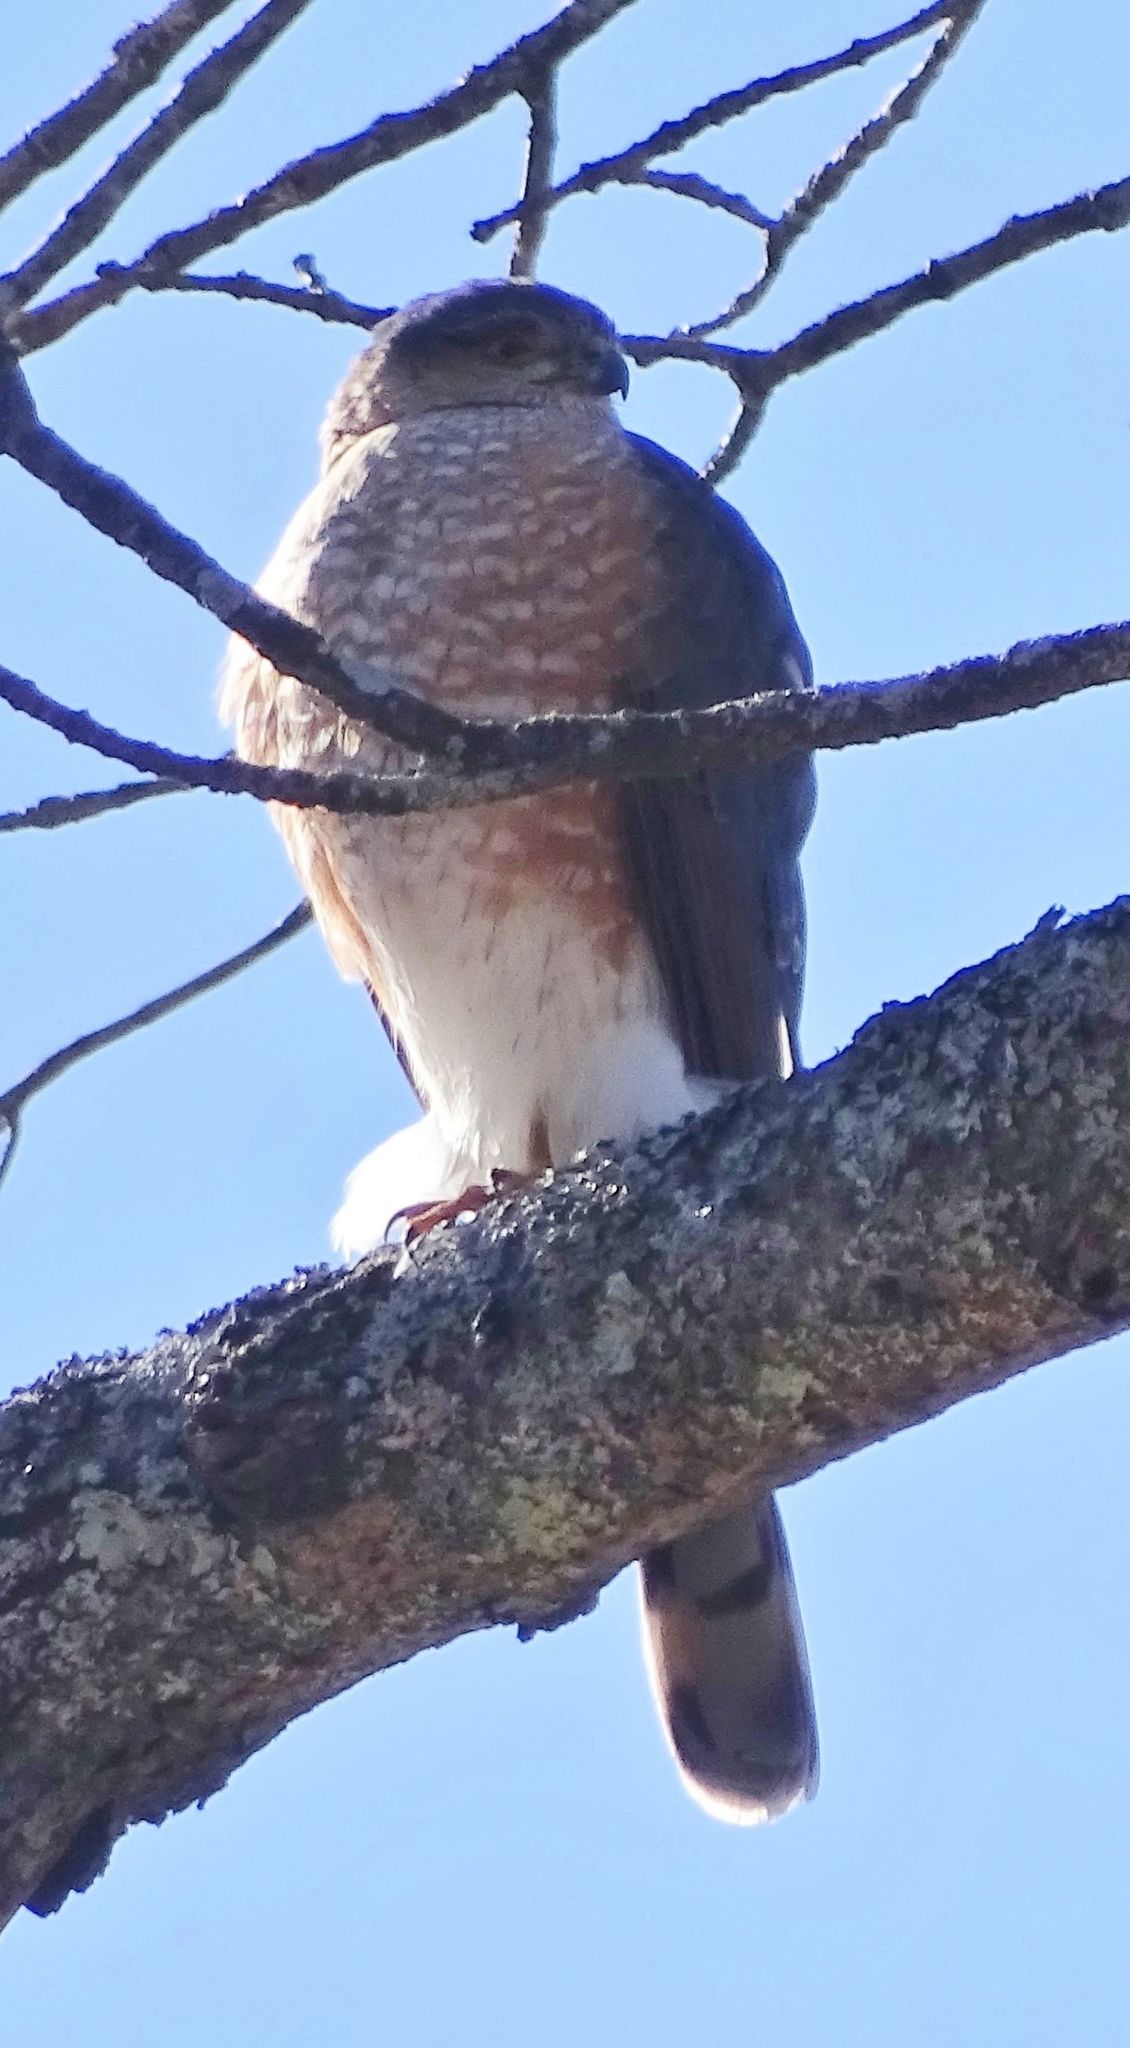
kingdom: Animalia
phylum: Chordata
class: Aves
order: Accipitriformes
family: Accipitridae
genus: Accipiter
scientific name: Accipiter striatus
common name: Sharp-shinned hawk
